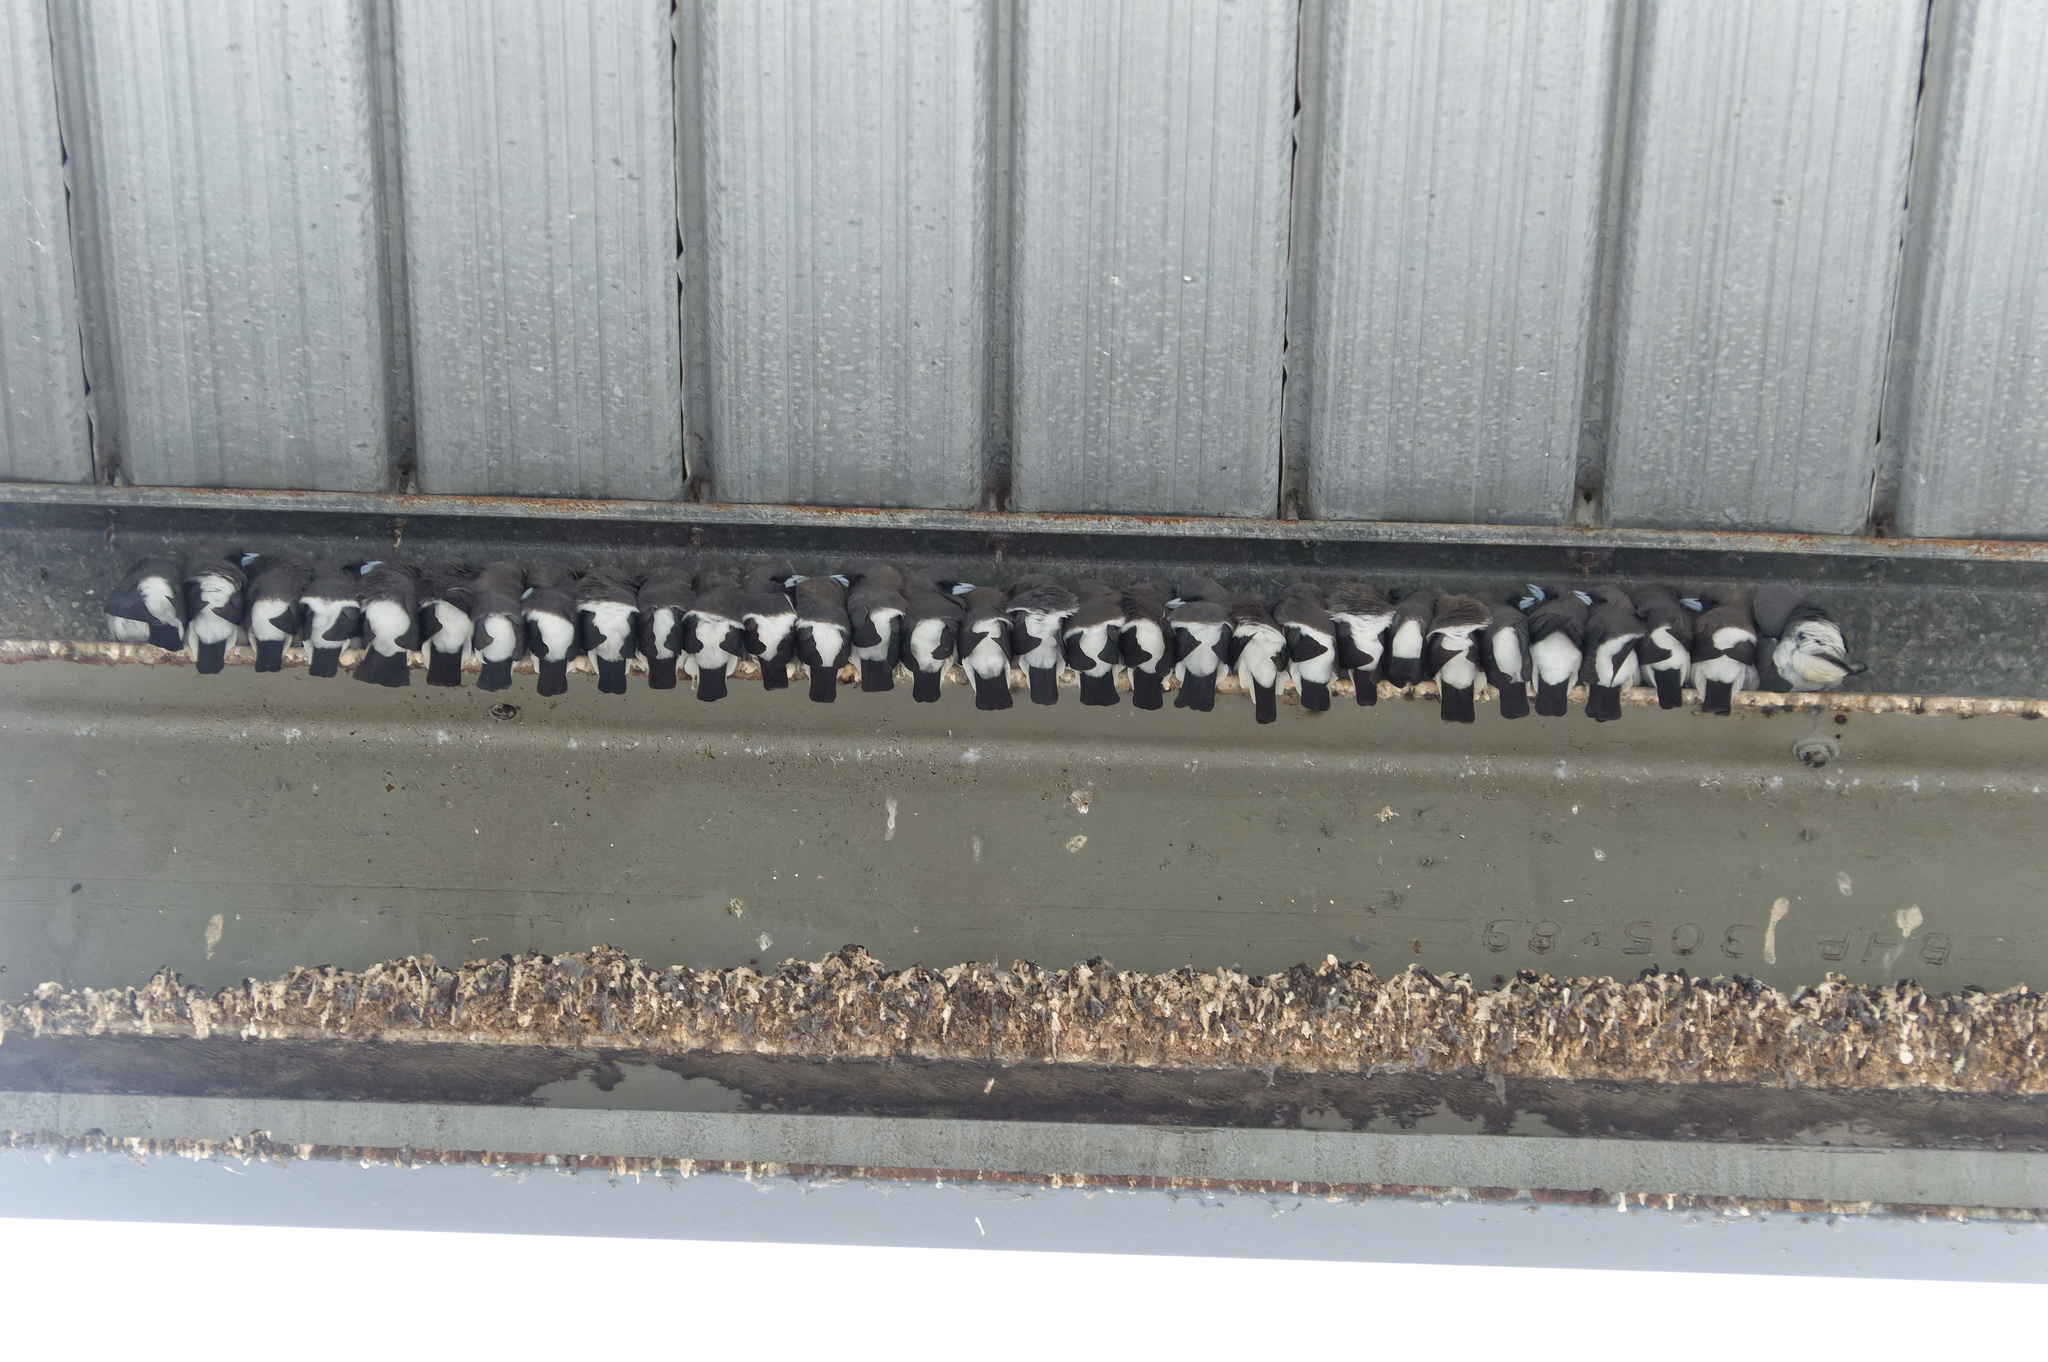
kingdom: Animalia
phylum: Chordata
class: Aves
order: Passeriformes
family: Artamidae
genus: Artamus
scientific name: Artamus leucoryn
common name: White-breasted woodswallow
